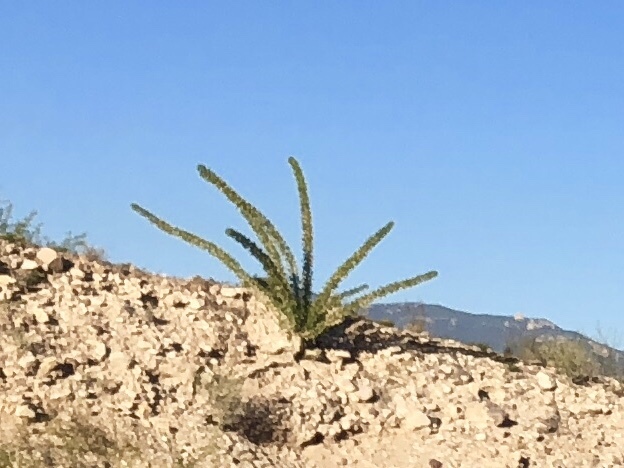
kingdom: Plantae
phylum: Tracheophyta
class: Magnoliopsida
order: Ericales
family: Fouquieriaceae
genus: Fouquieria
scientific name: Fouquieria splendens
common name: Vine-cactus
